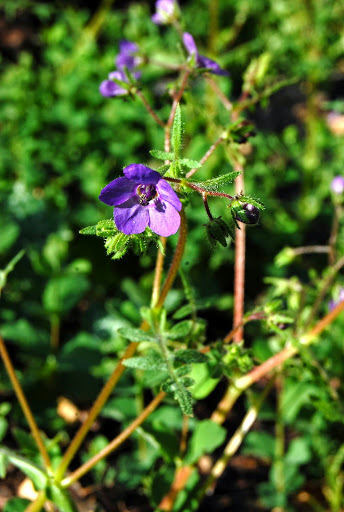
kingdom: Plantae
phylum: Tracheophyta
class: Magnoliopsida
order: Boraginales
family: Hydrophyllaceae
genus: Pholistoma
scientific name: Pholistoma auritum
